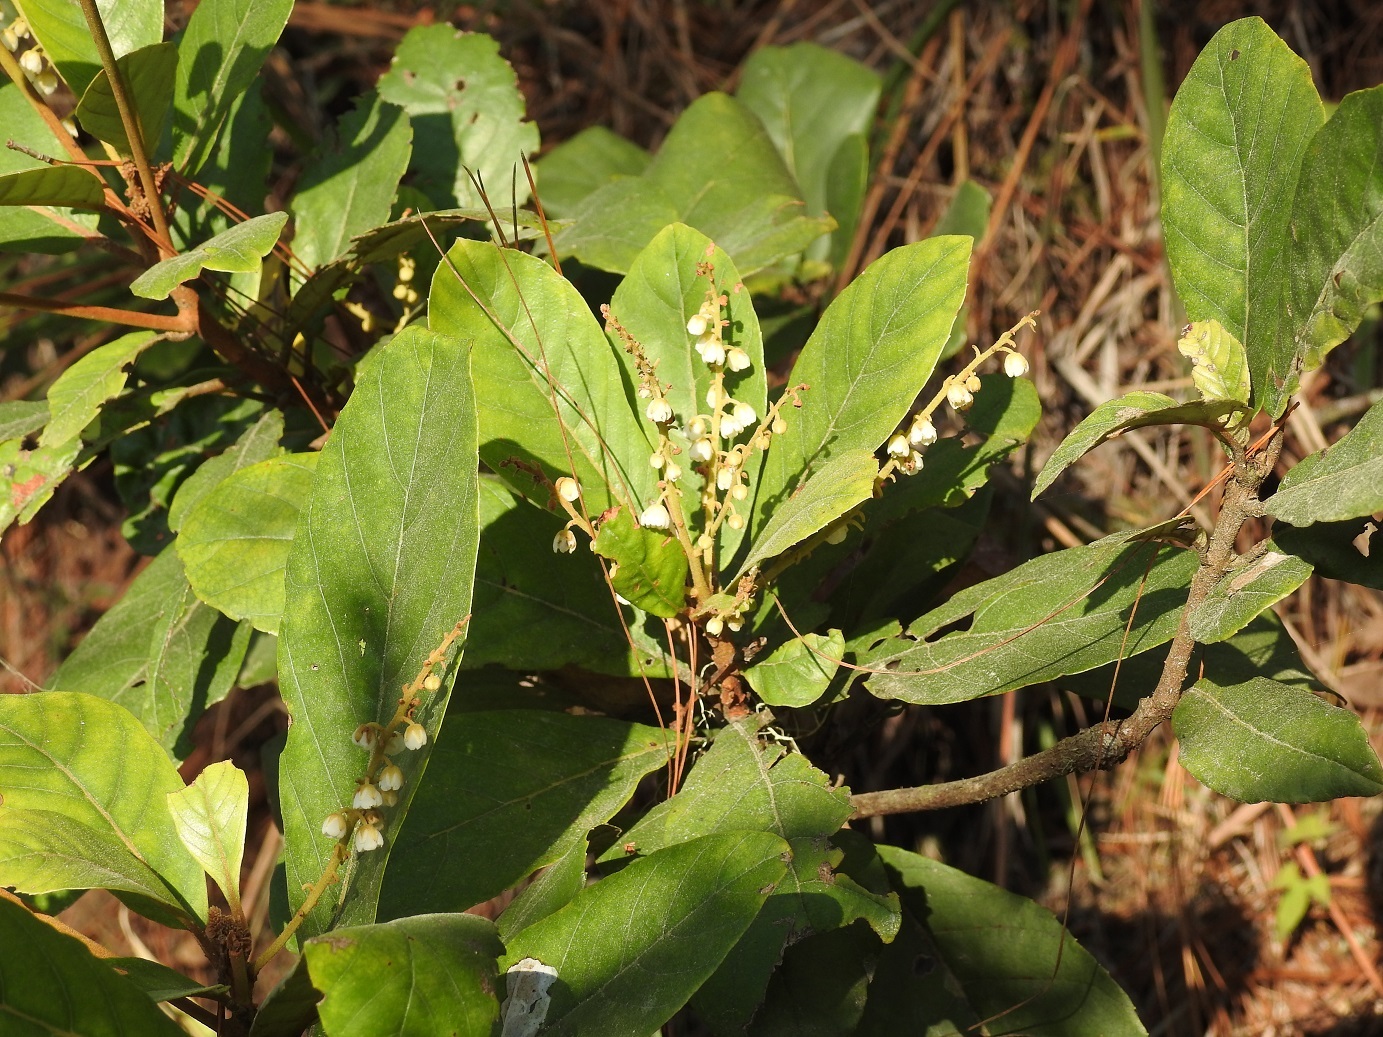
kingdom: Plantae
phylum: Tracheophyta
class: Magnoliopsida
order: Ericales
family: Clethraceae
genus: Clethra
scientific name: Clethra mexicana
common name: Nance macho
